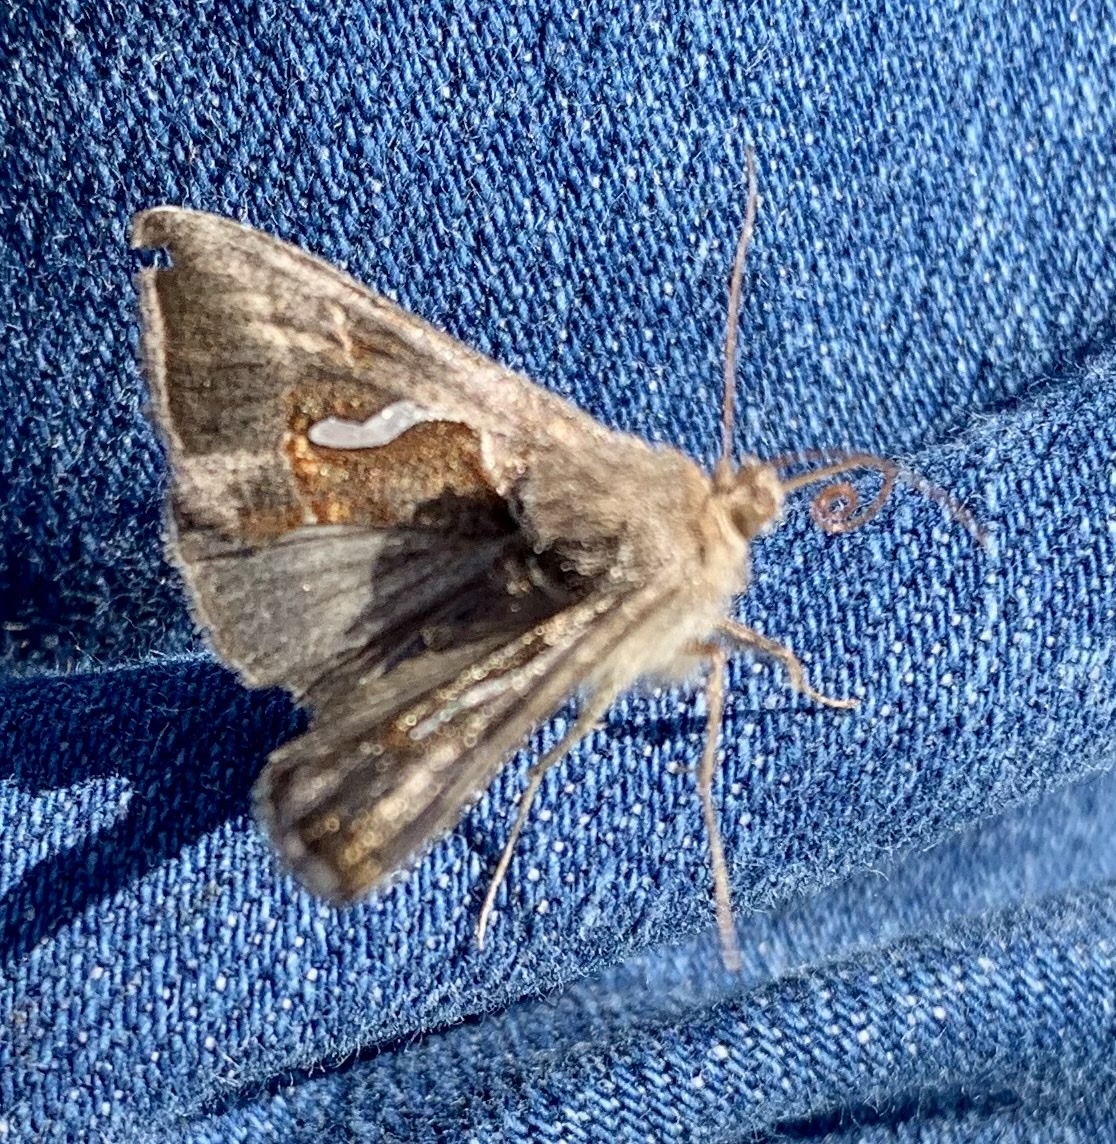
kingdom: Animalia
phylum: Arthropoda
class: Insecta
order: Lepidoptera
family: Noctuidae
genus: Macdunnoughia
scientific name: Macdunnoughia confusa
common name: Dewick's plusia
